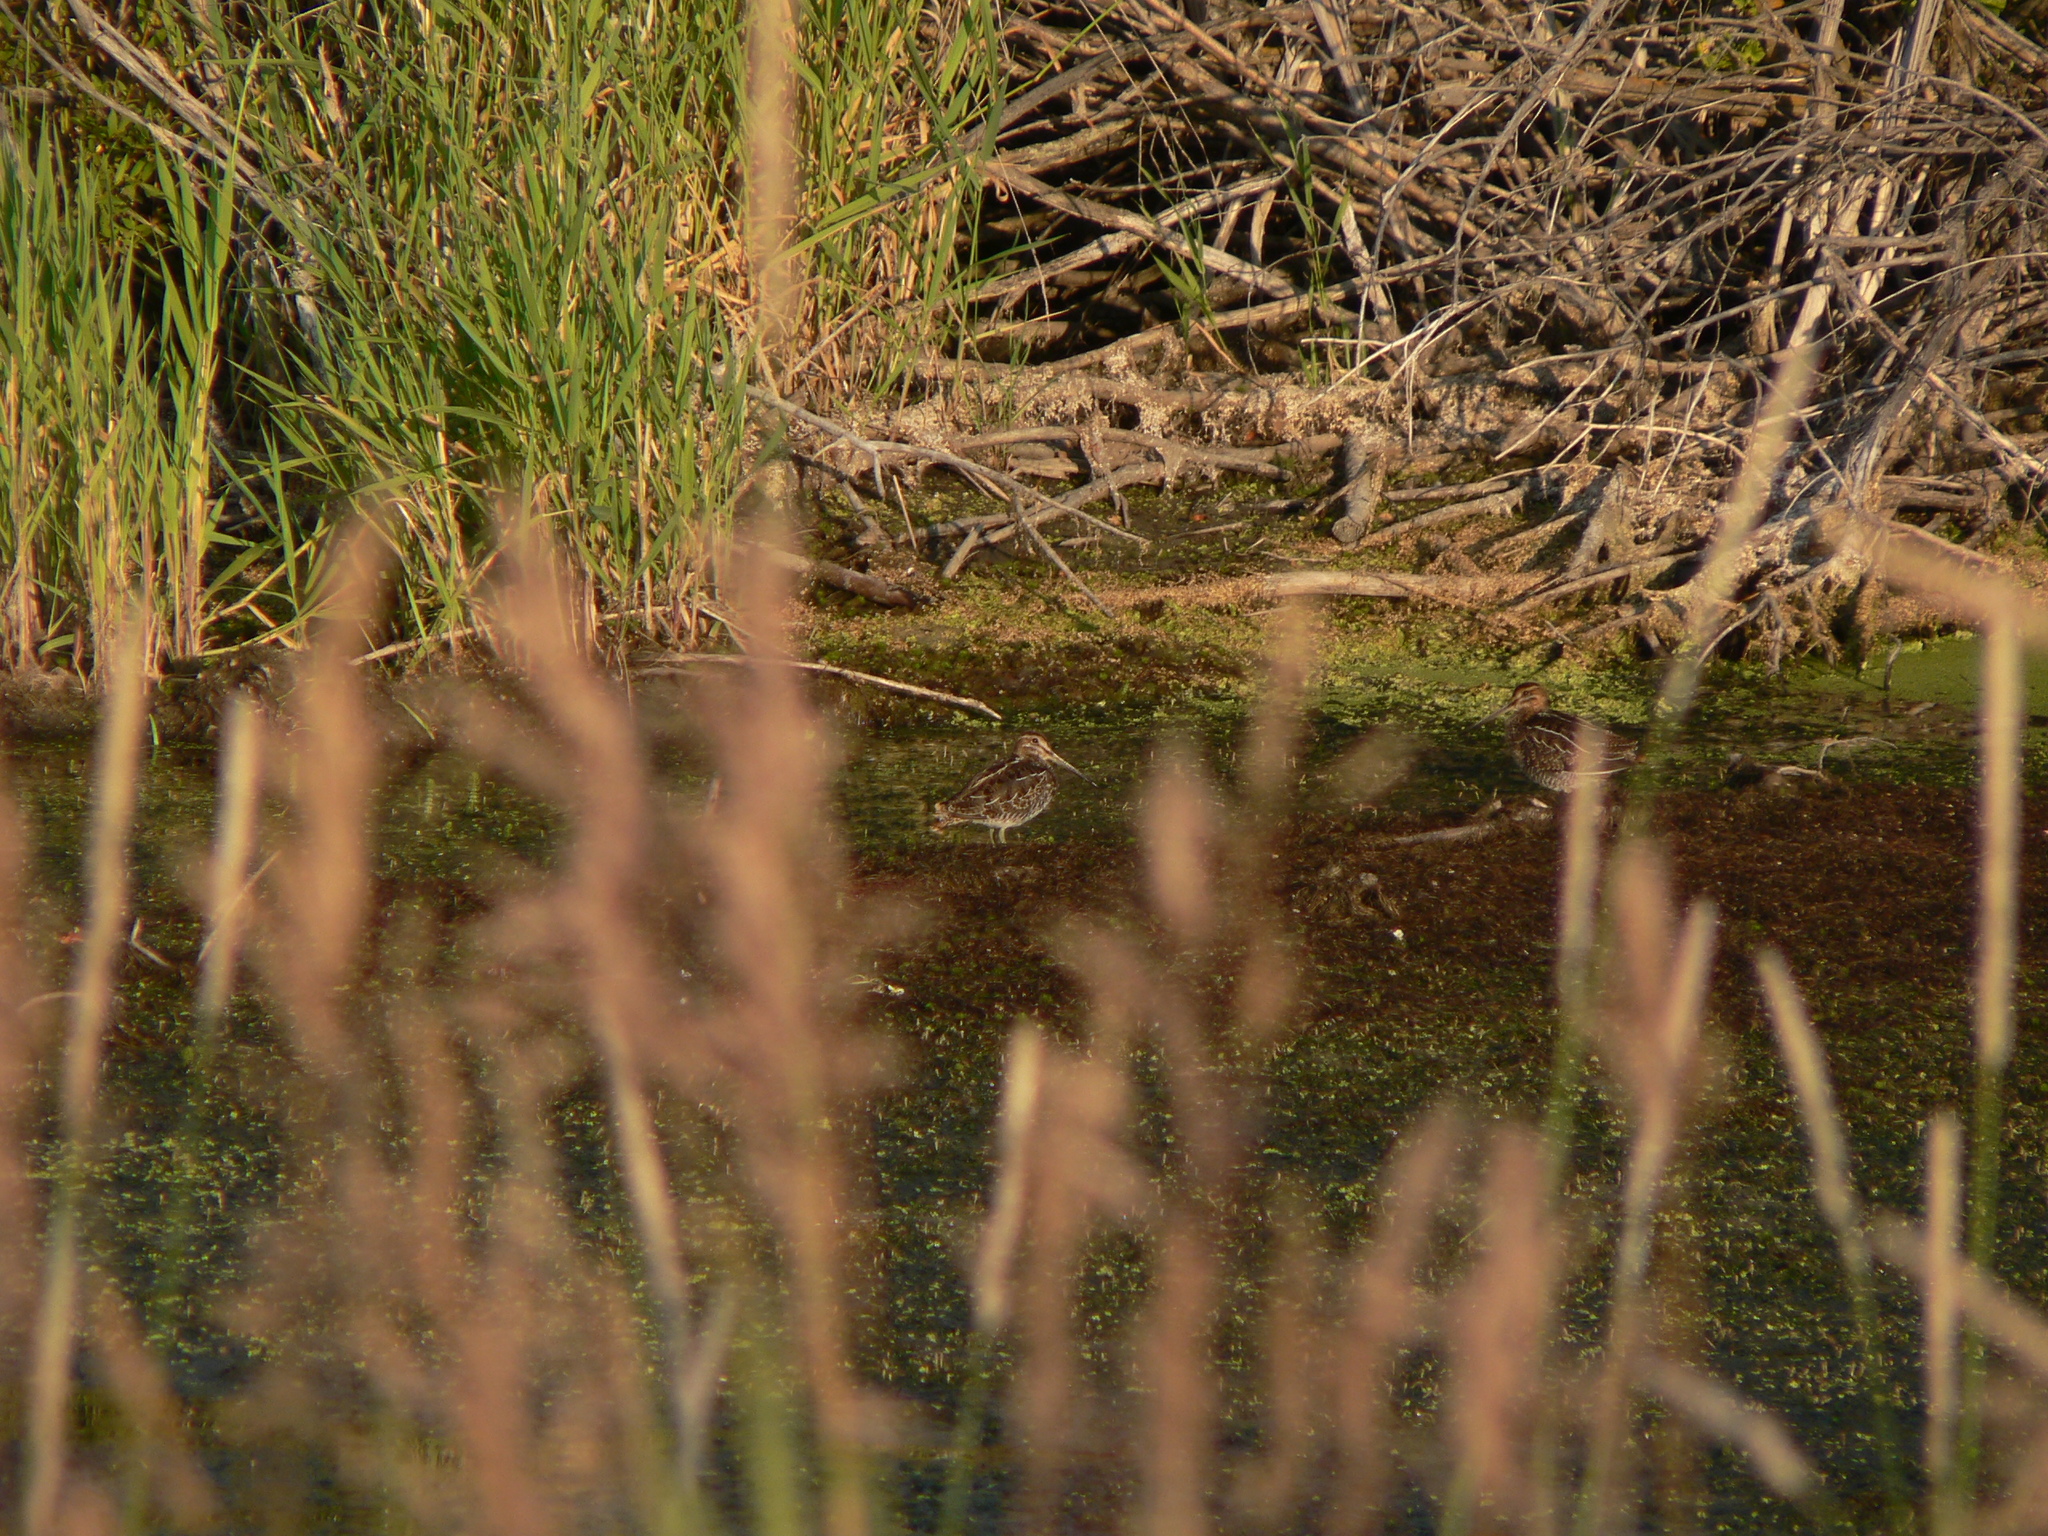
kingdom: Animalia
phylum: Chordata
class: Aves
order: Charadriiformes
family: Scolopacidae
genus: Gallinago
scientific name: Gallinago delicata
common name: Wilson's snipe
